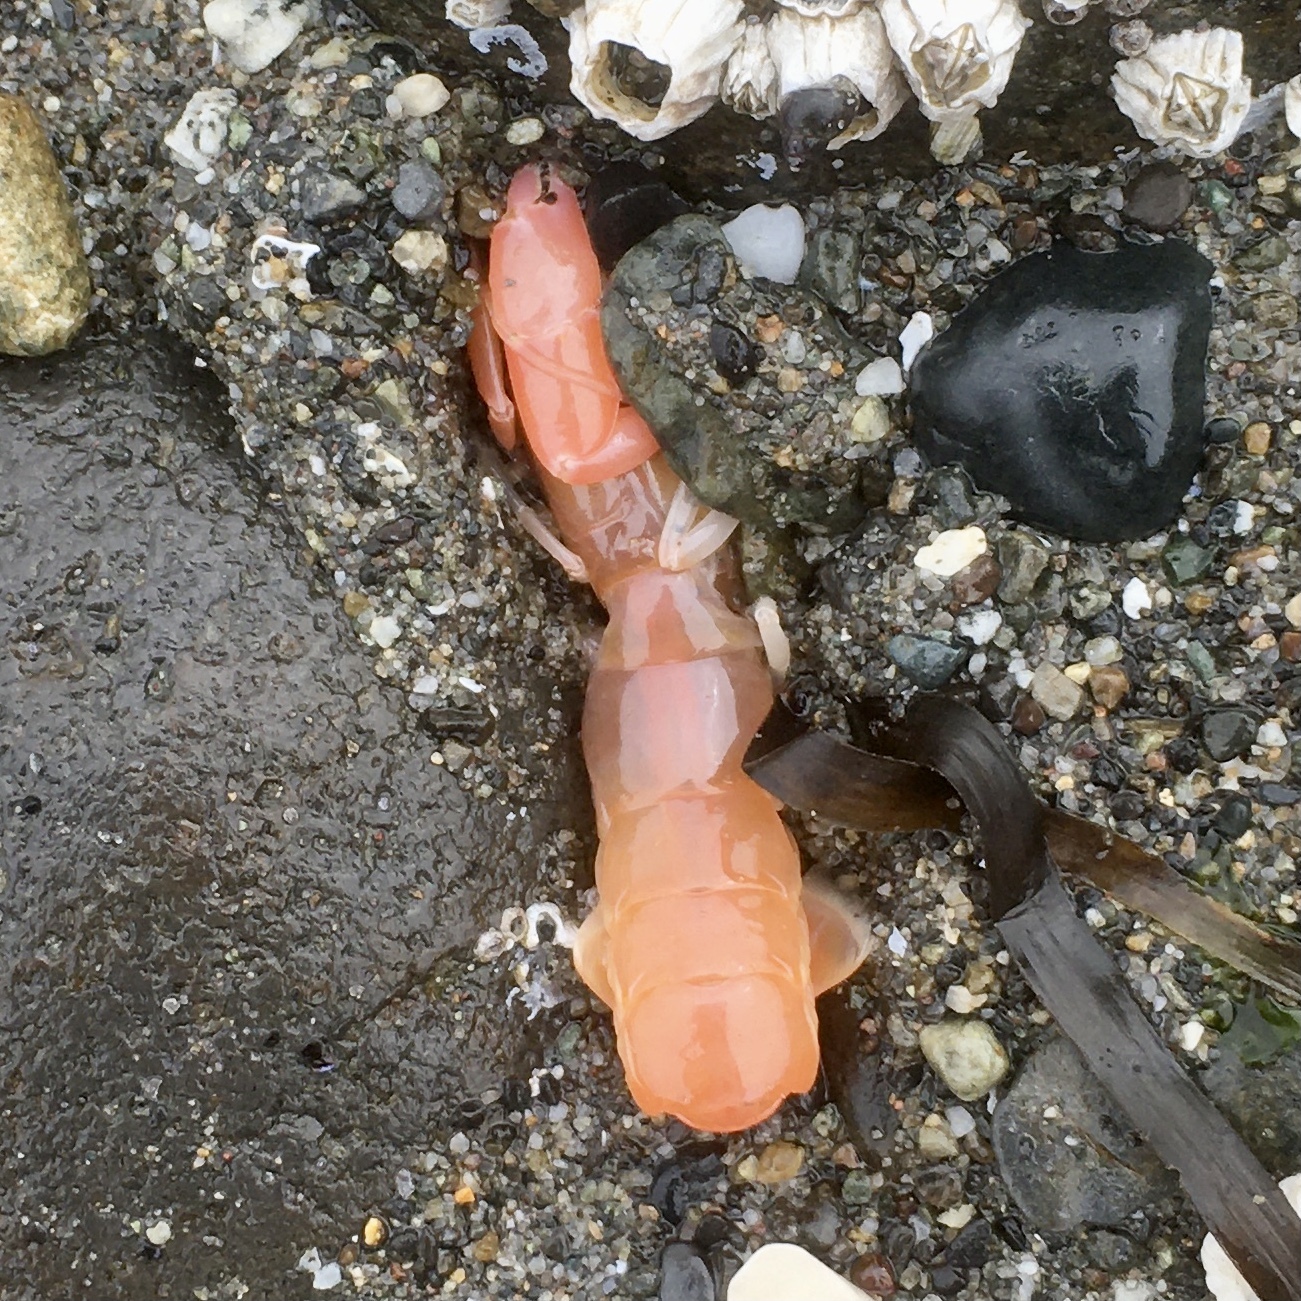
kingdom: Animalia
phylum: Arthropoda
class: Malacostraca
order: Decapoda
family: Callianassidae
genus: Neotrypaea
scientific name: Neotrypaea californiensis
